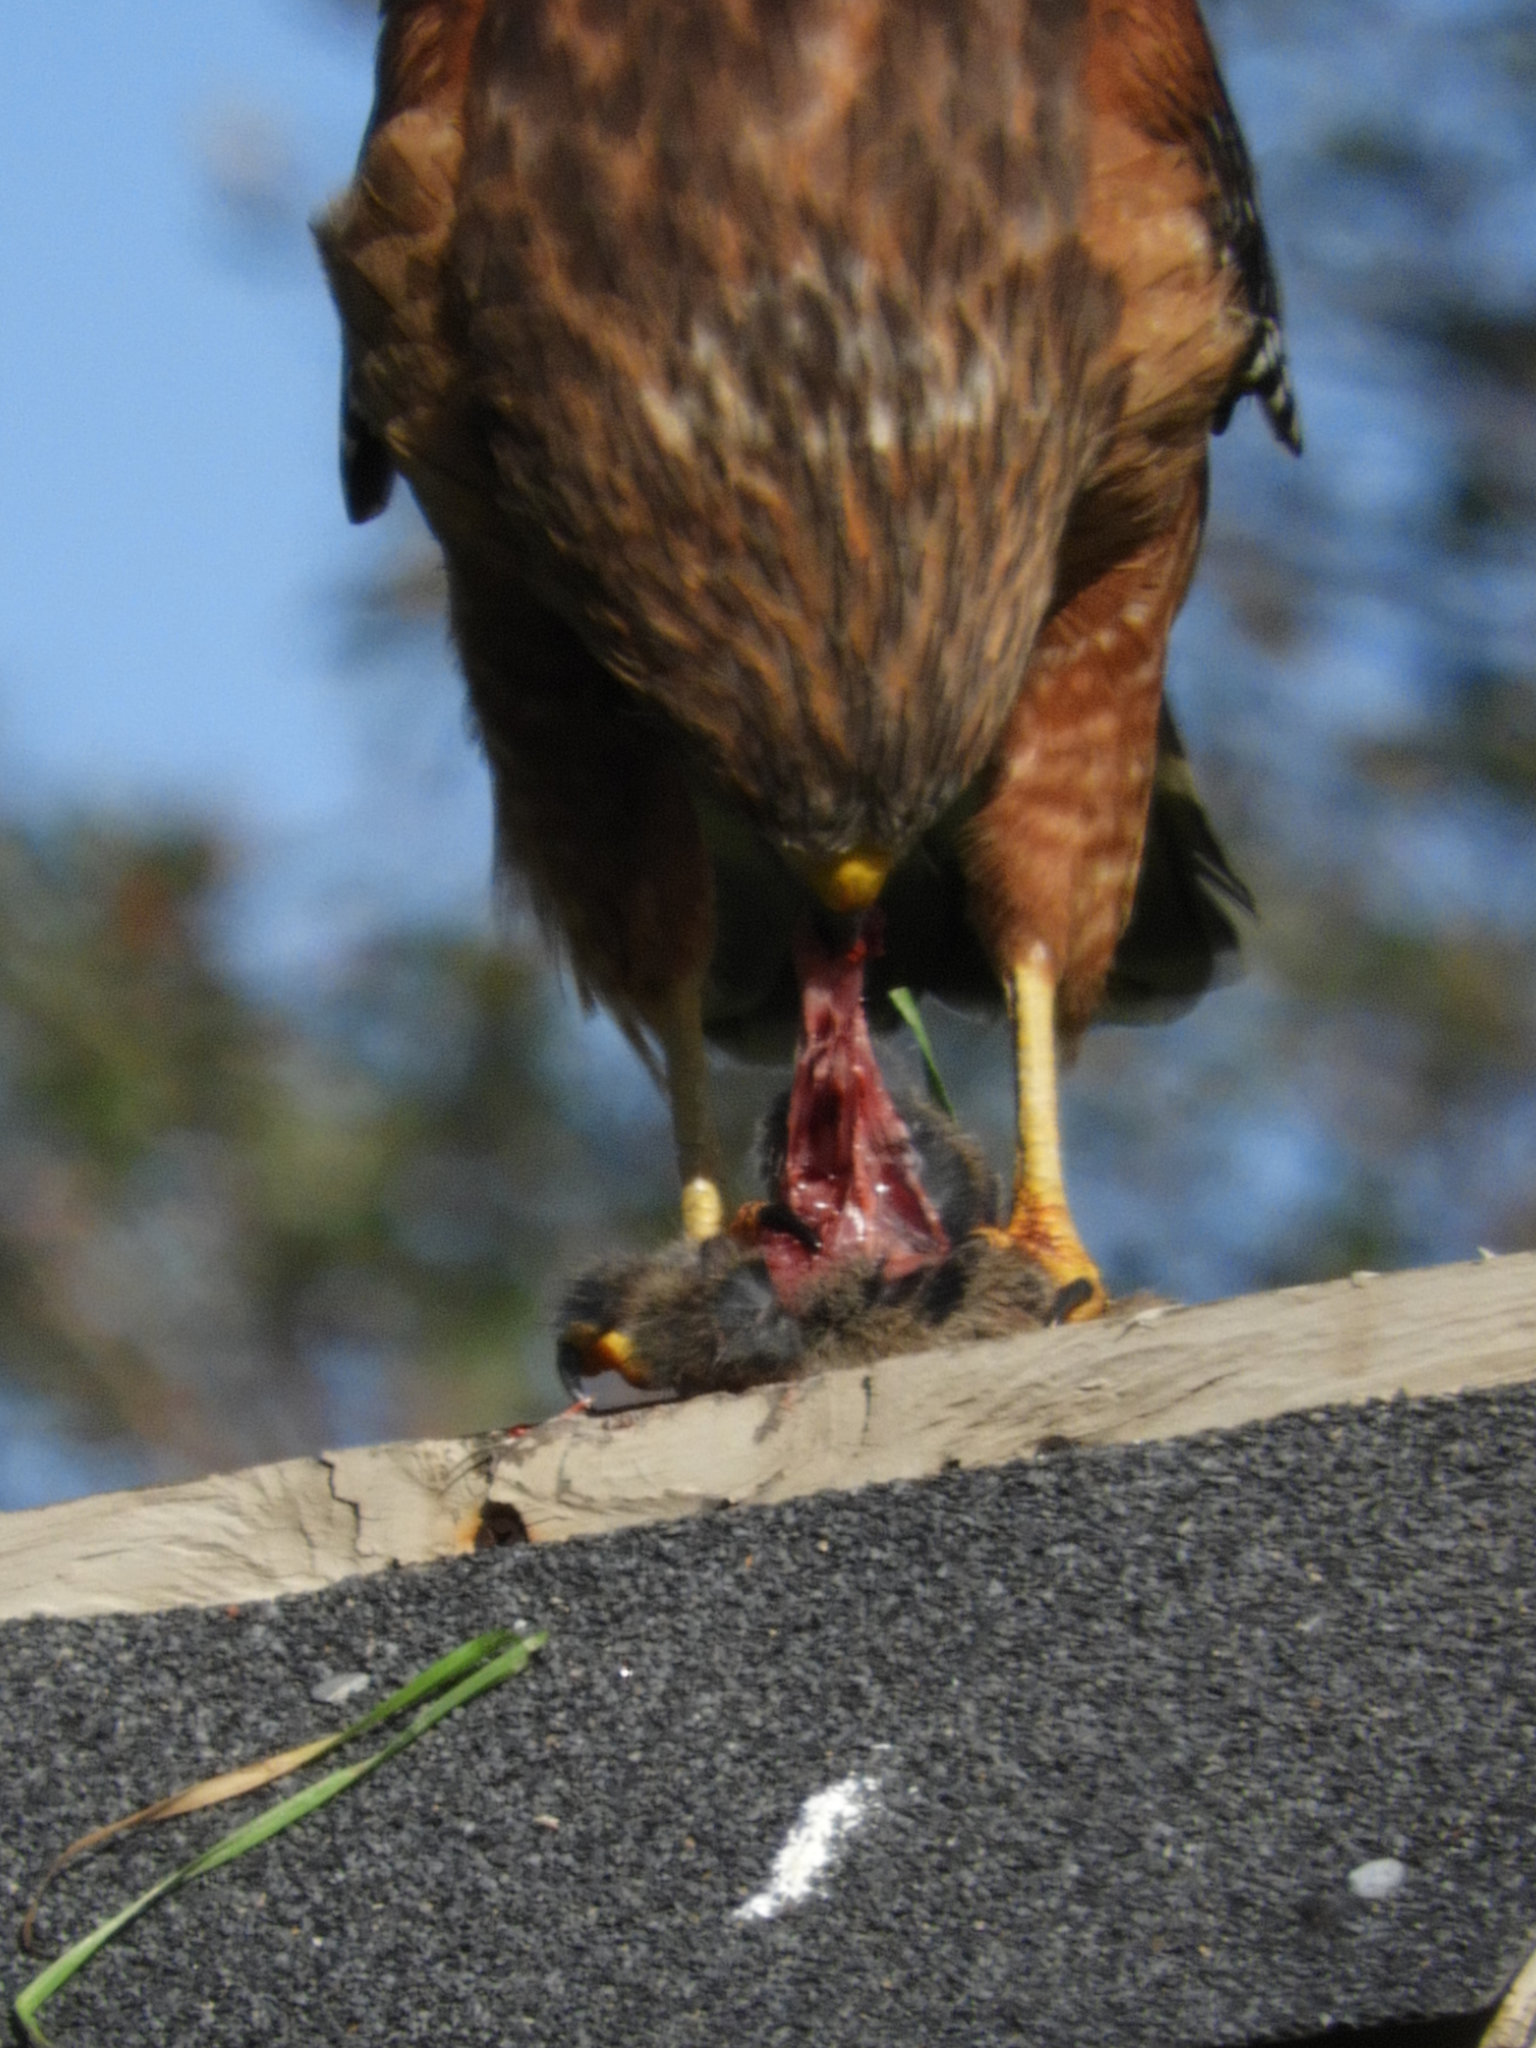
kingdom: Animalia
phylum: Chordata
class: Aves
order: Accipitriformes
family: Accipitridae
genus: Buteo
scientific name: Buteo lineatus
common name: Red-shouldered hawk
